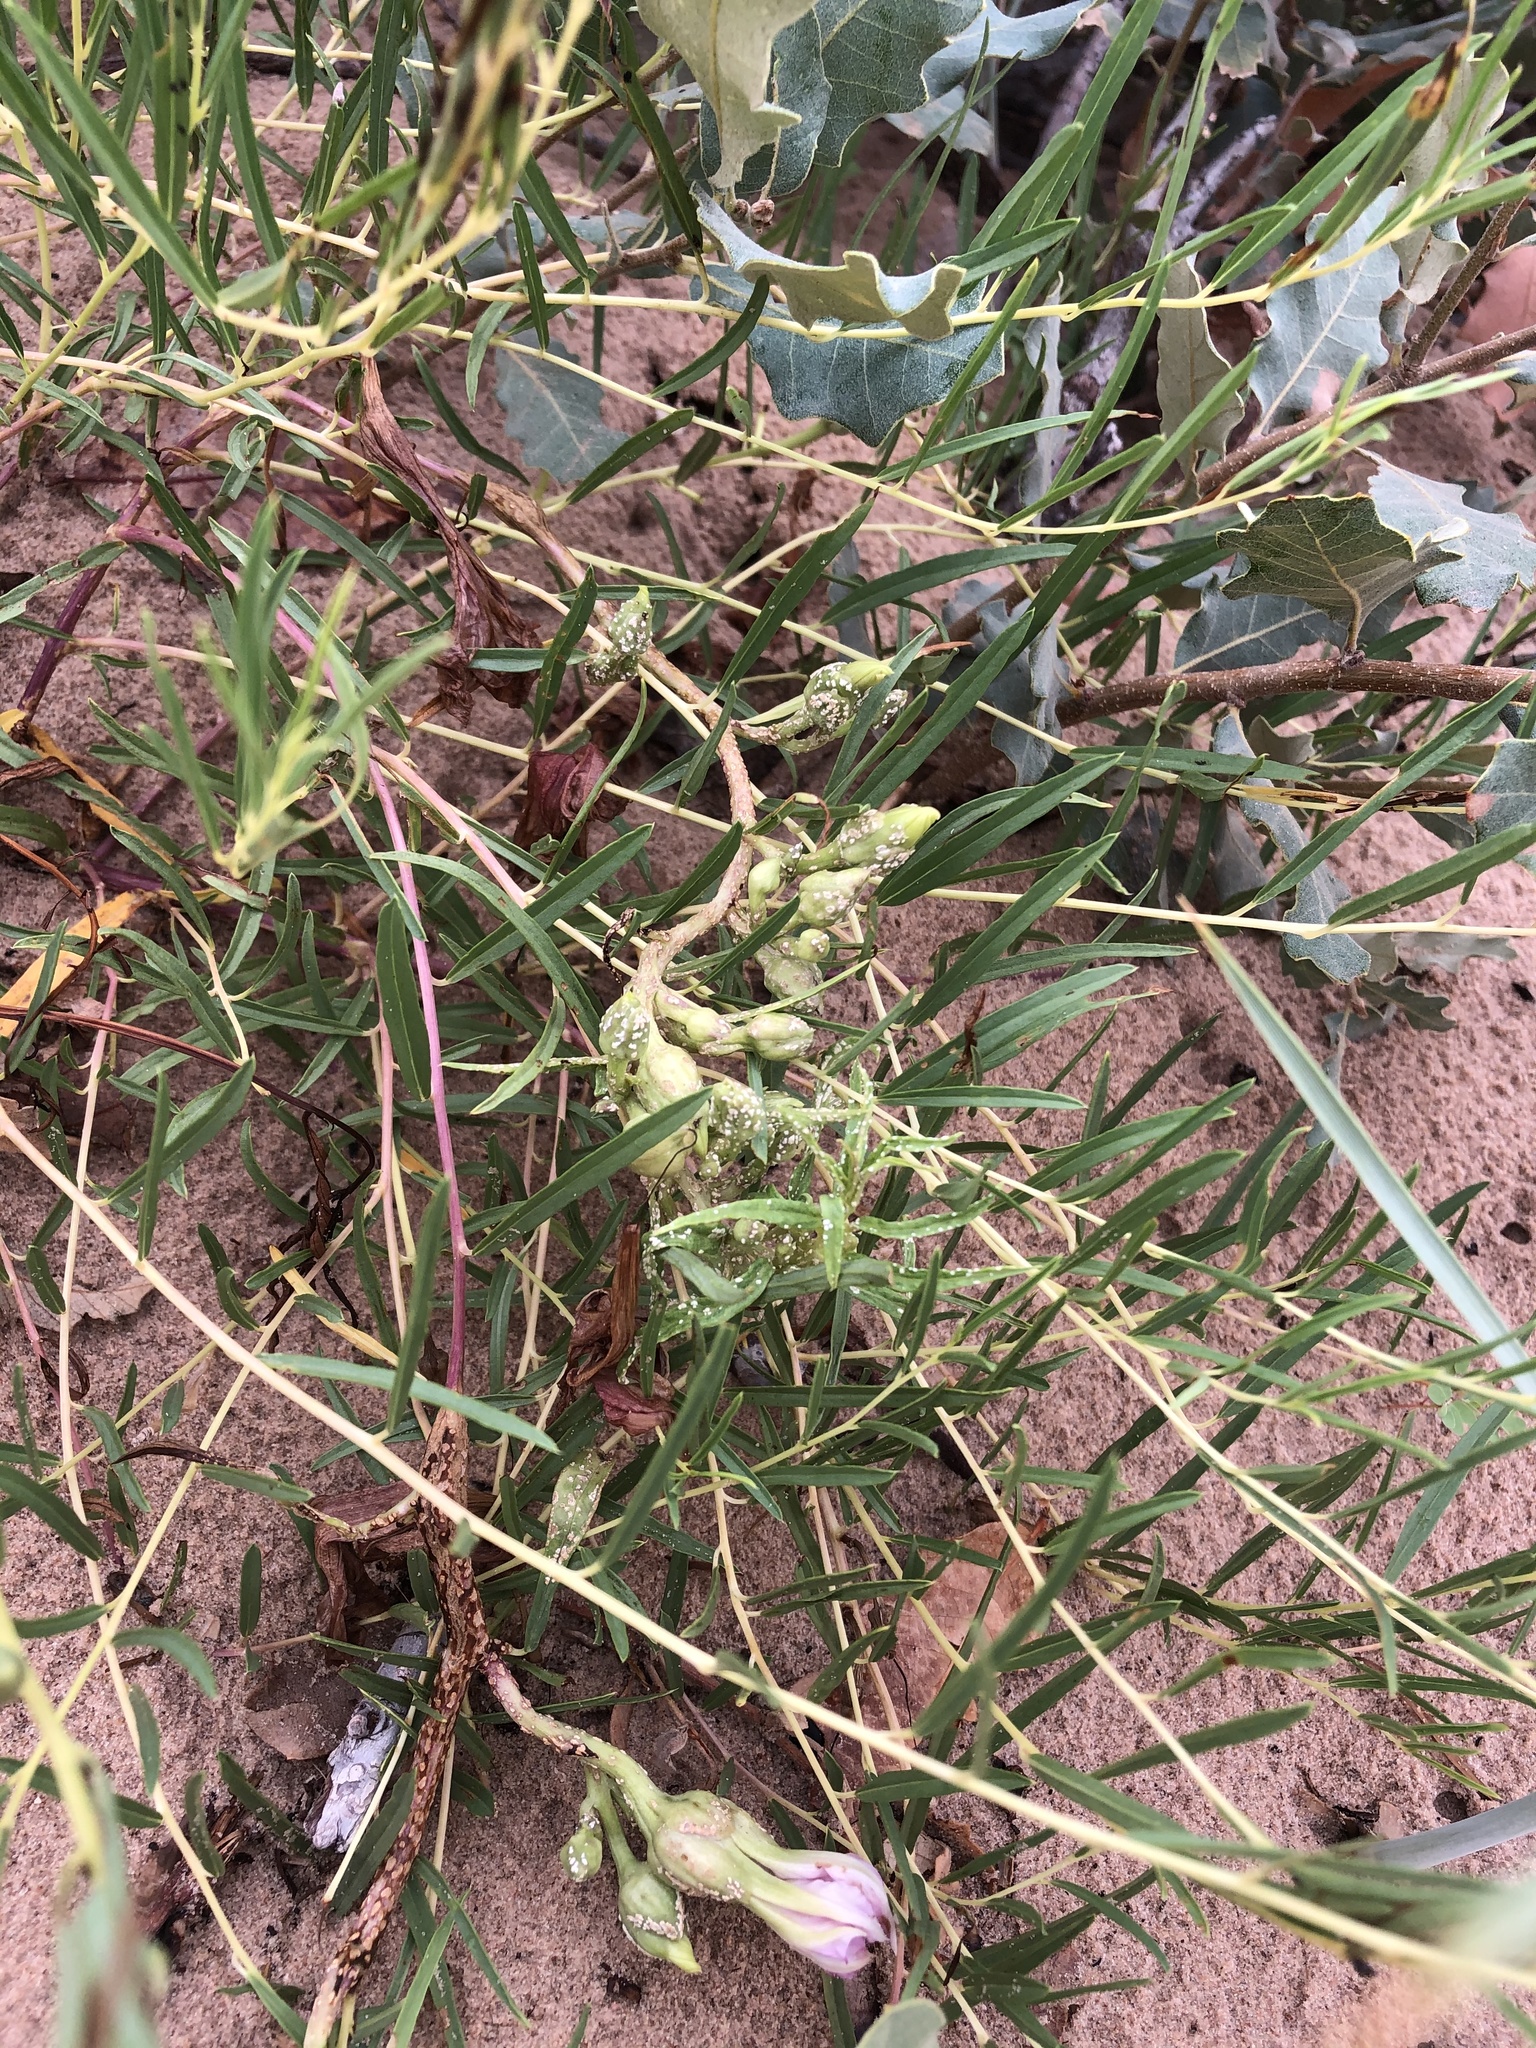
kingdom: Plantae
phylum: Tracheophyta
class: Magnoliopsida
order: Solanales
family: Convolvulaceae
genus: Ipomoea
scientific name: Ipomoea leptophylla
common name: Bush moonflower
